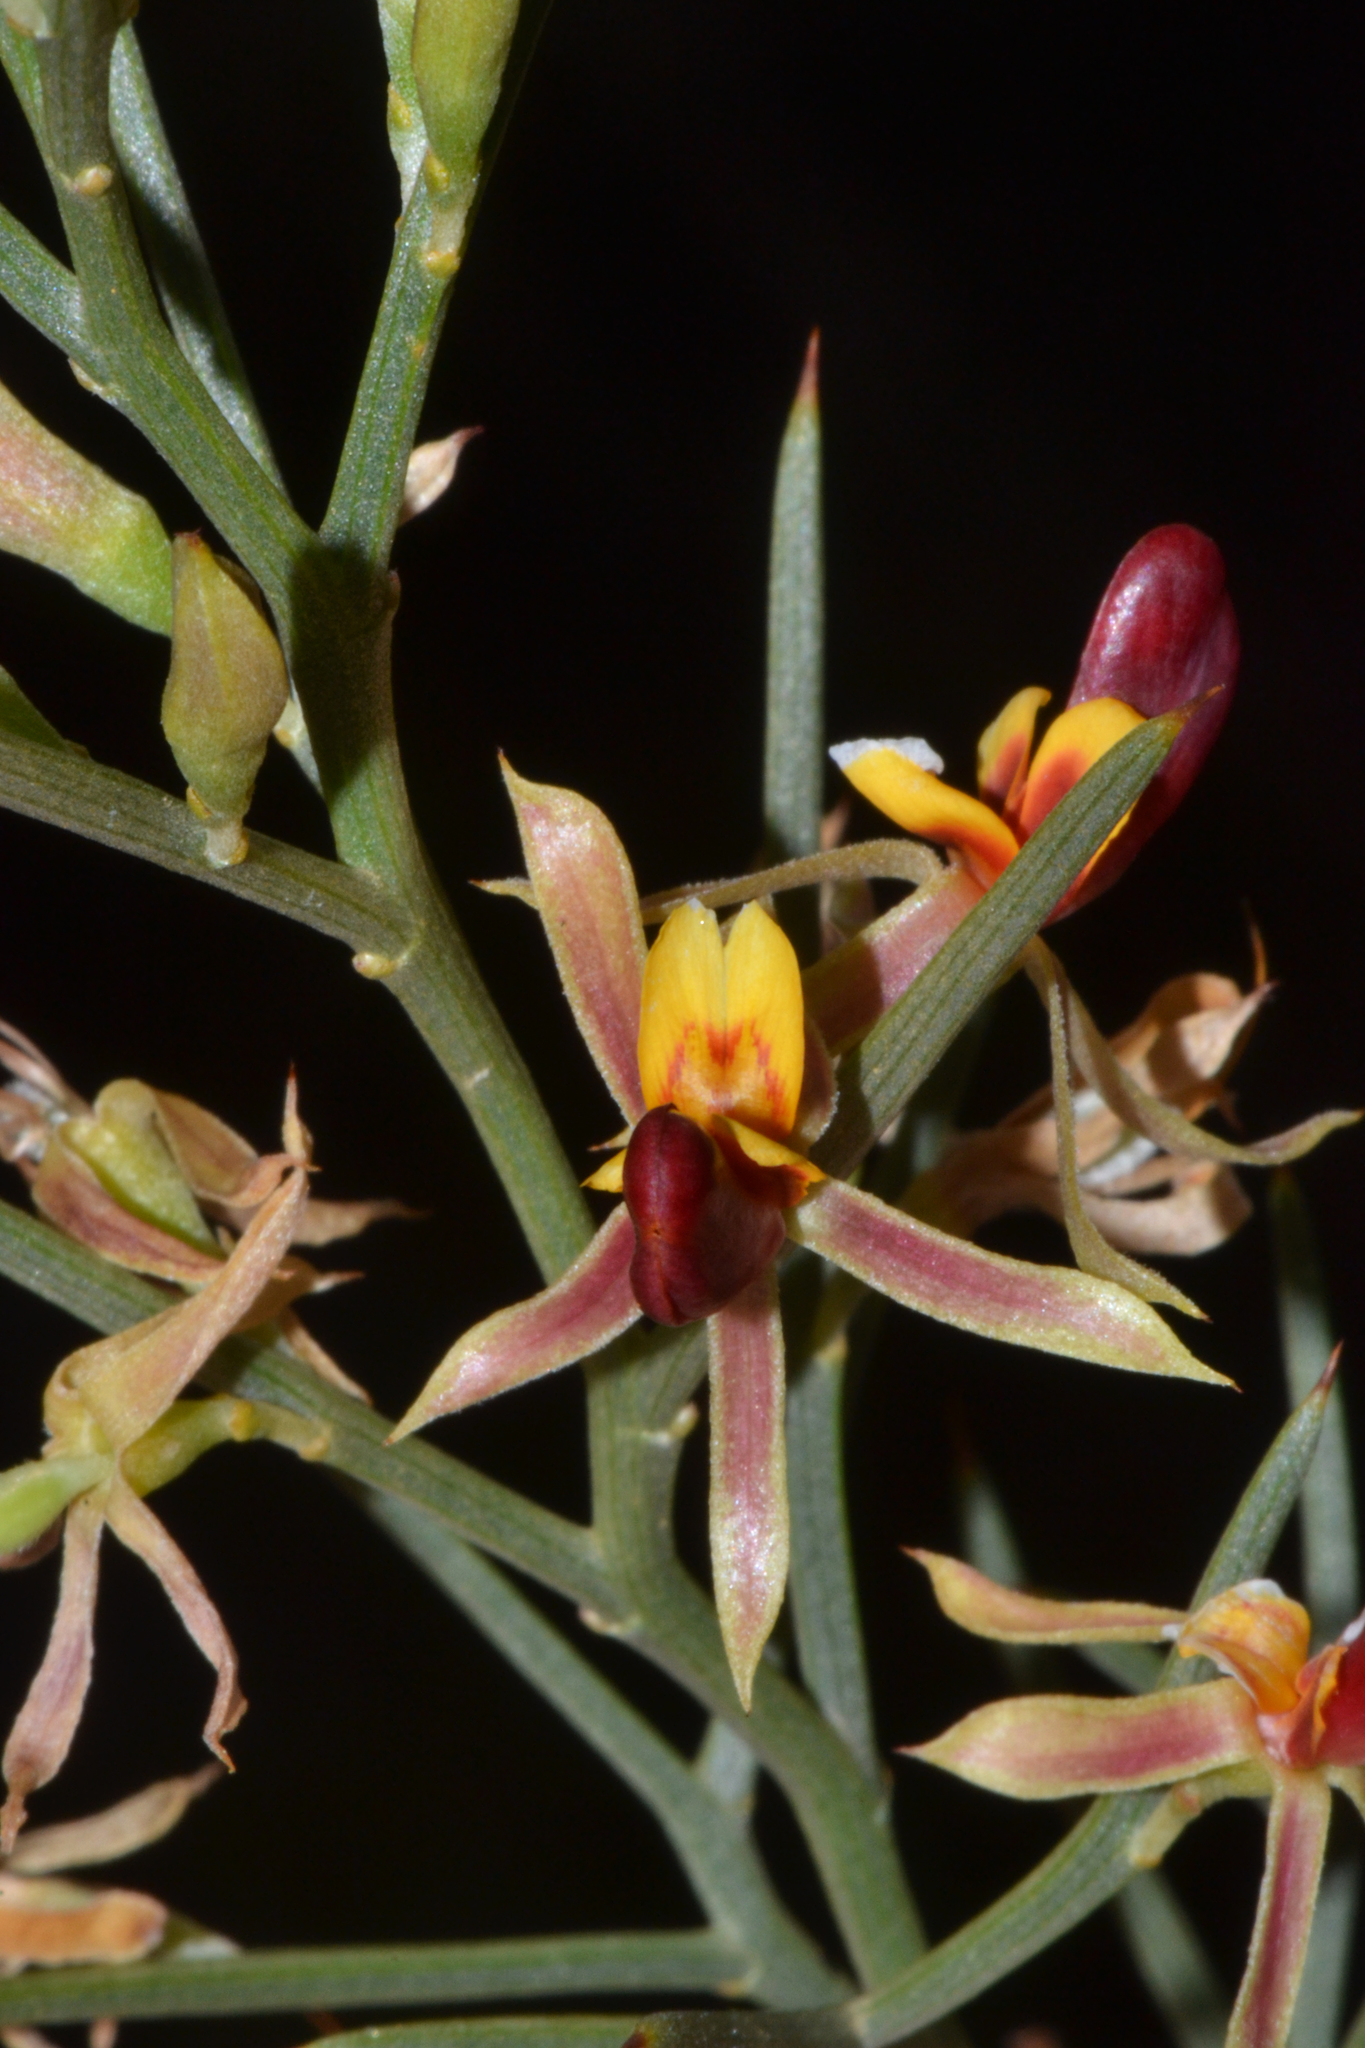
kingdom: Plantae
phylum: Tracheophyta
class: Magnoliopsida
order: Fabales
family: Fabaceae
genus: Jacksonia
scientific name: Jacksonia nutans
